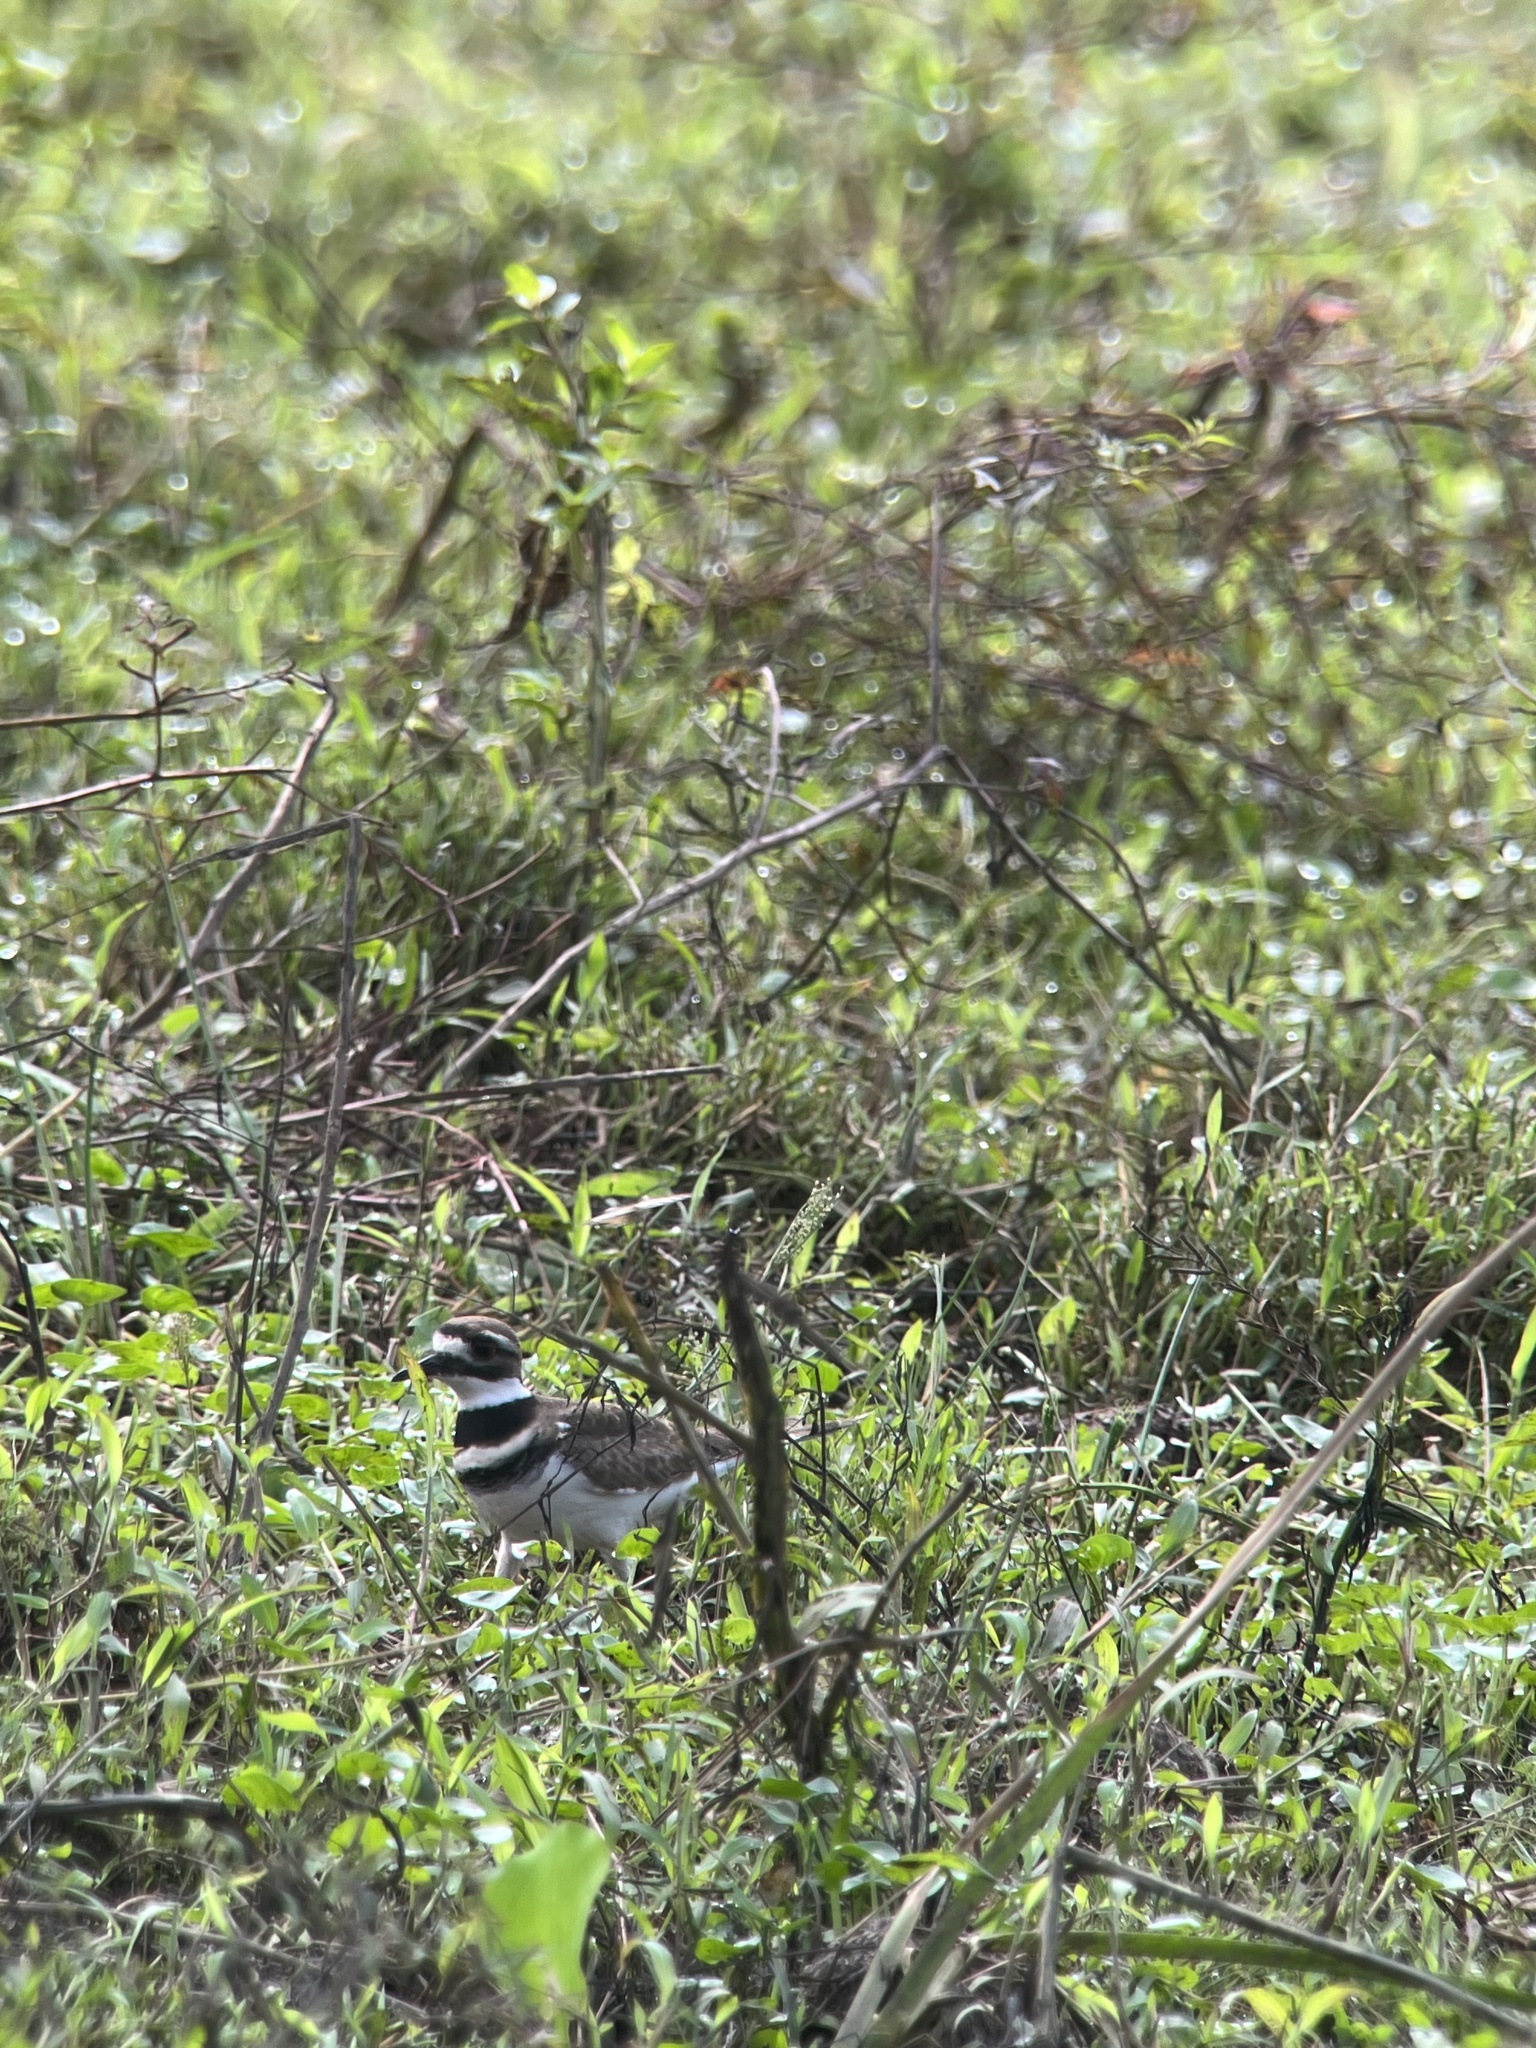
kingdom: Animalia
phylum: Chordata
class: Aves
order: Charadriiformes
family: Charadriidae
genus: Charadrius
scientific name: Charadrius vociferus
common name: Killdeer
